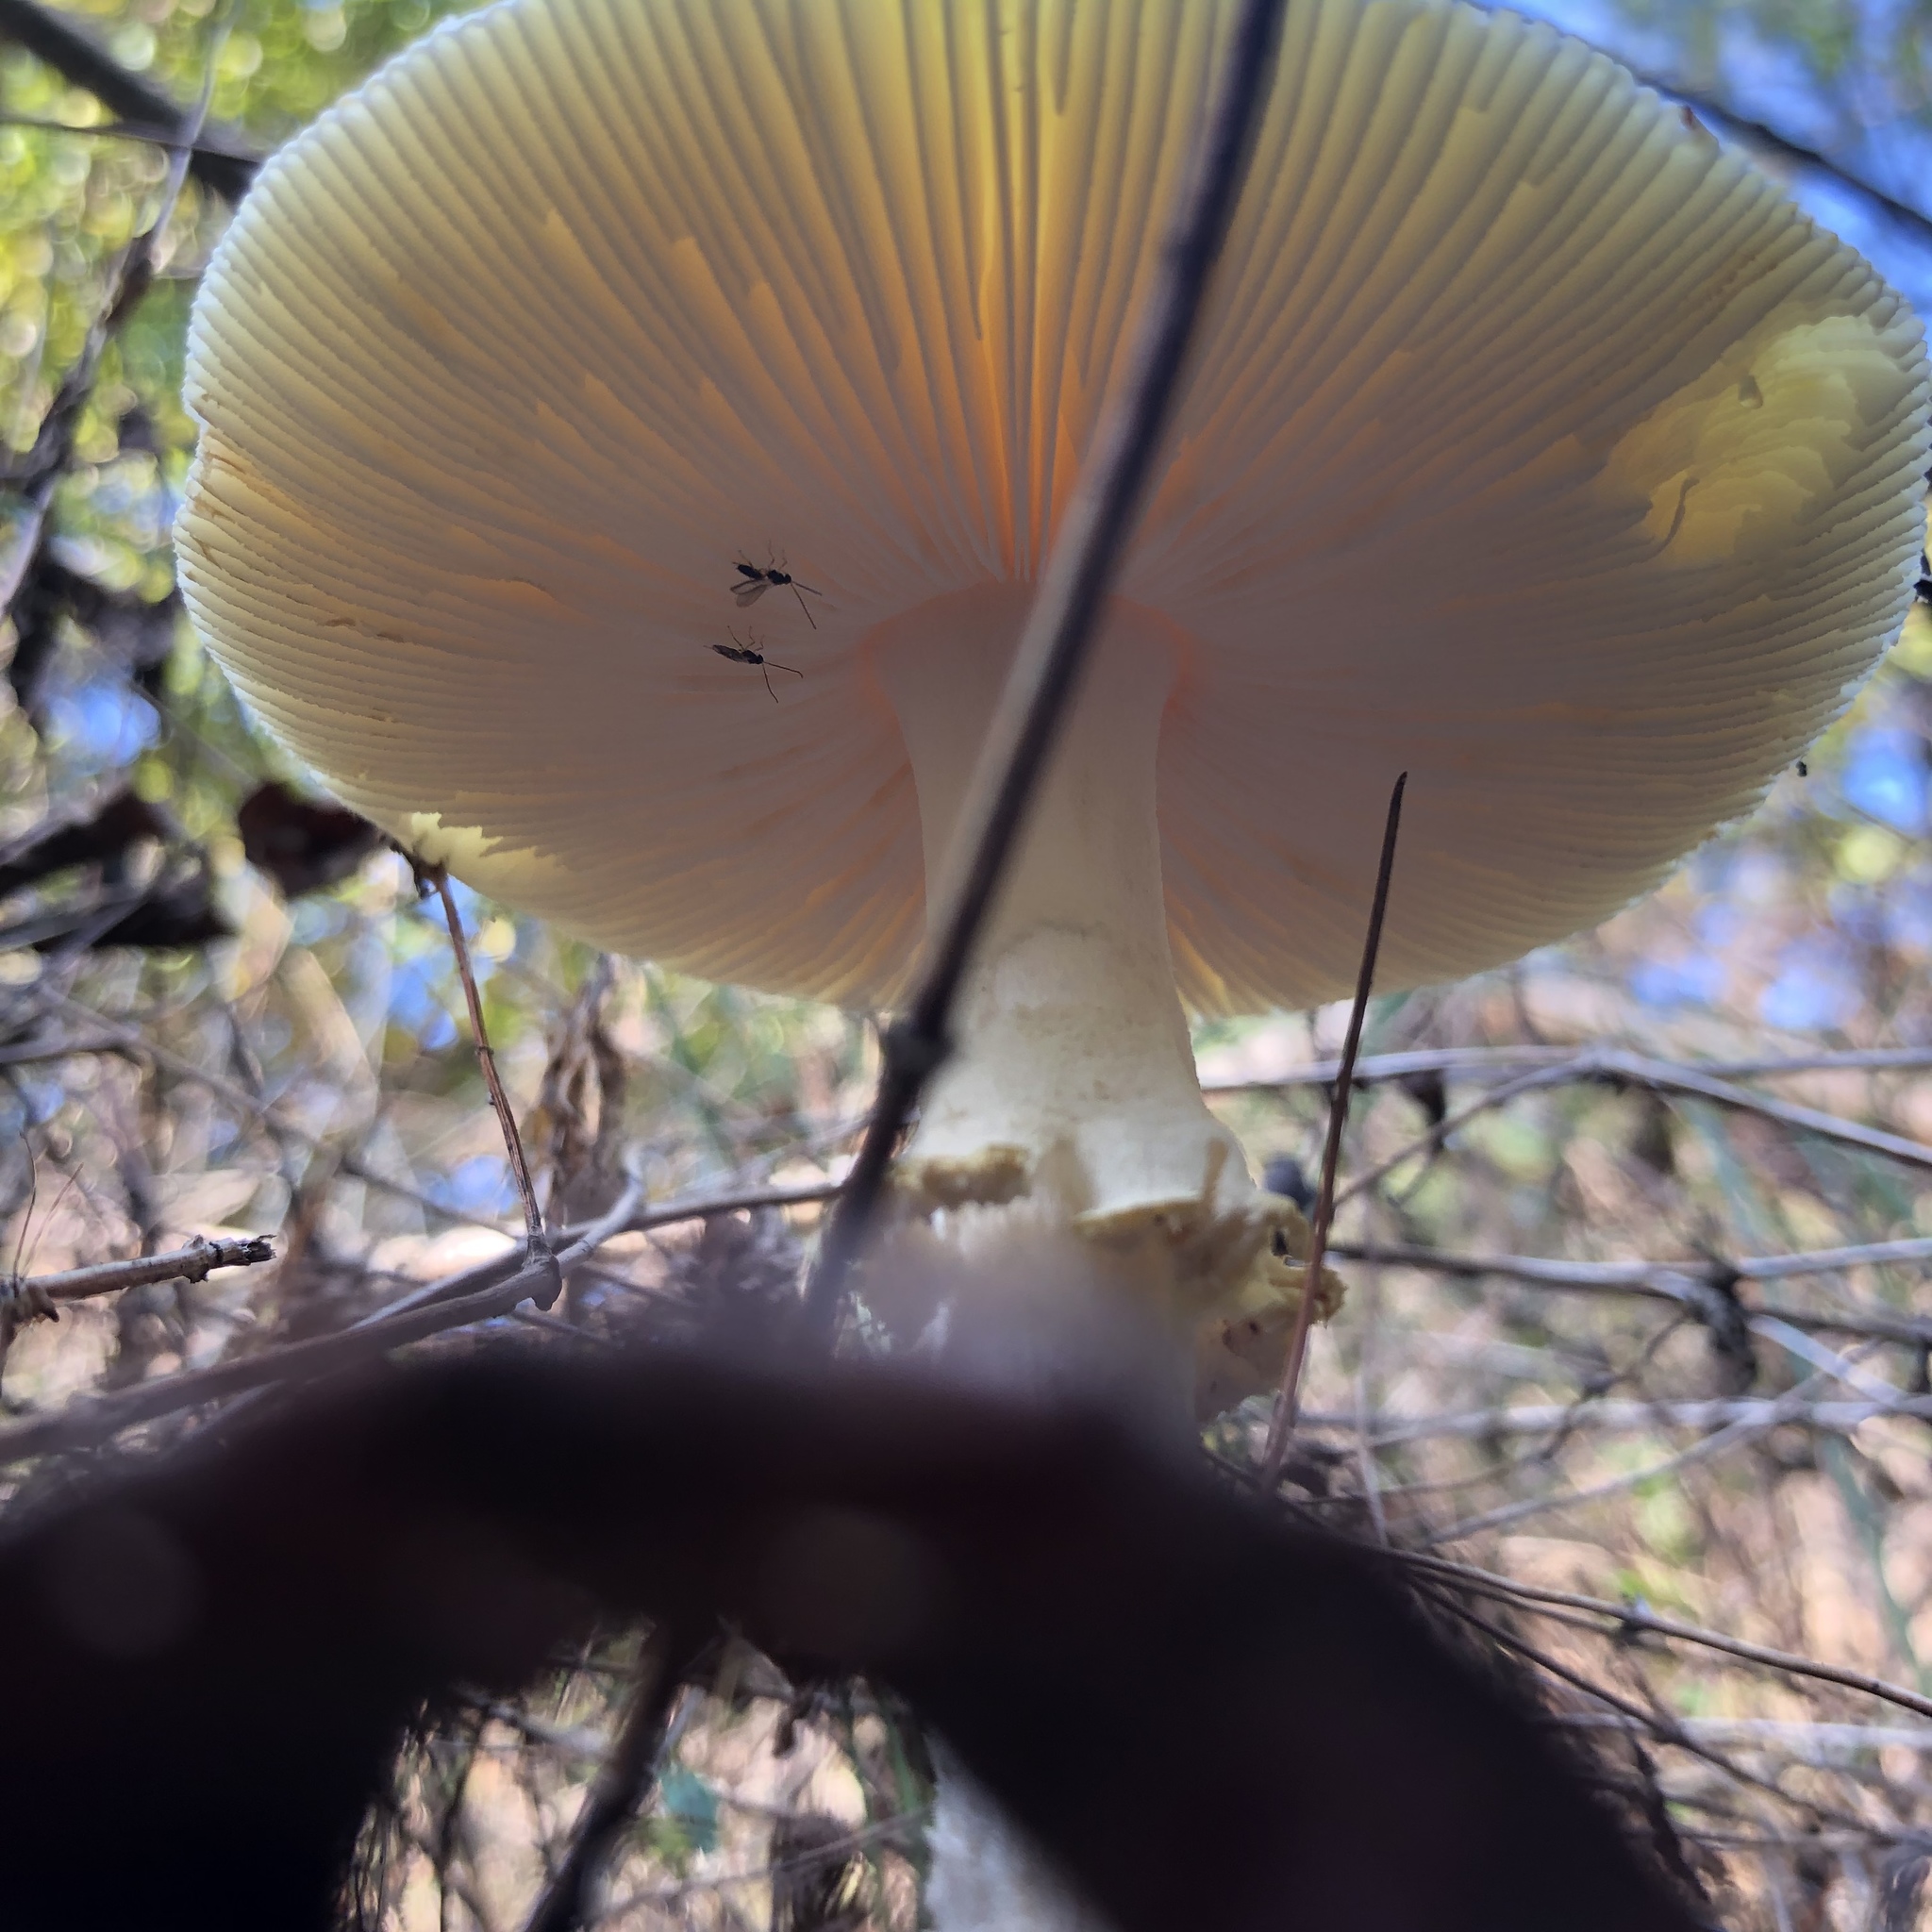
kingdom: Fungi
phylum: Basidiomycota
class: Agaricomycetes
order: Agaricales
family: Amanitaceae
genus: Amanita
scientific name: Amanita muscaria
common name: Fly agaric
